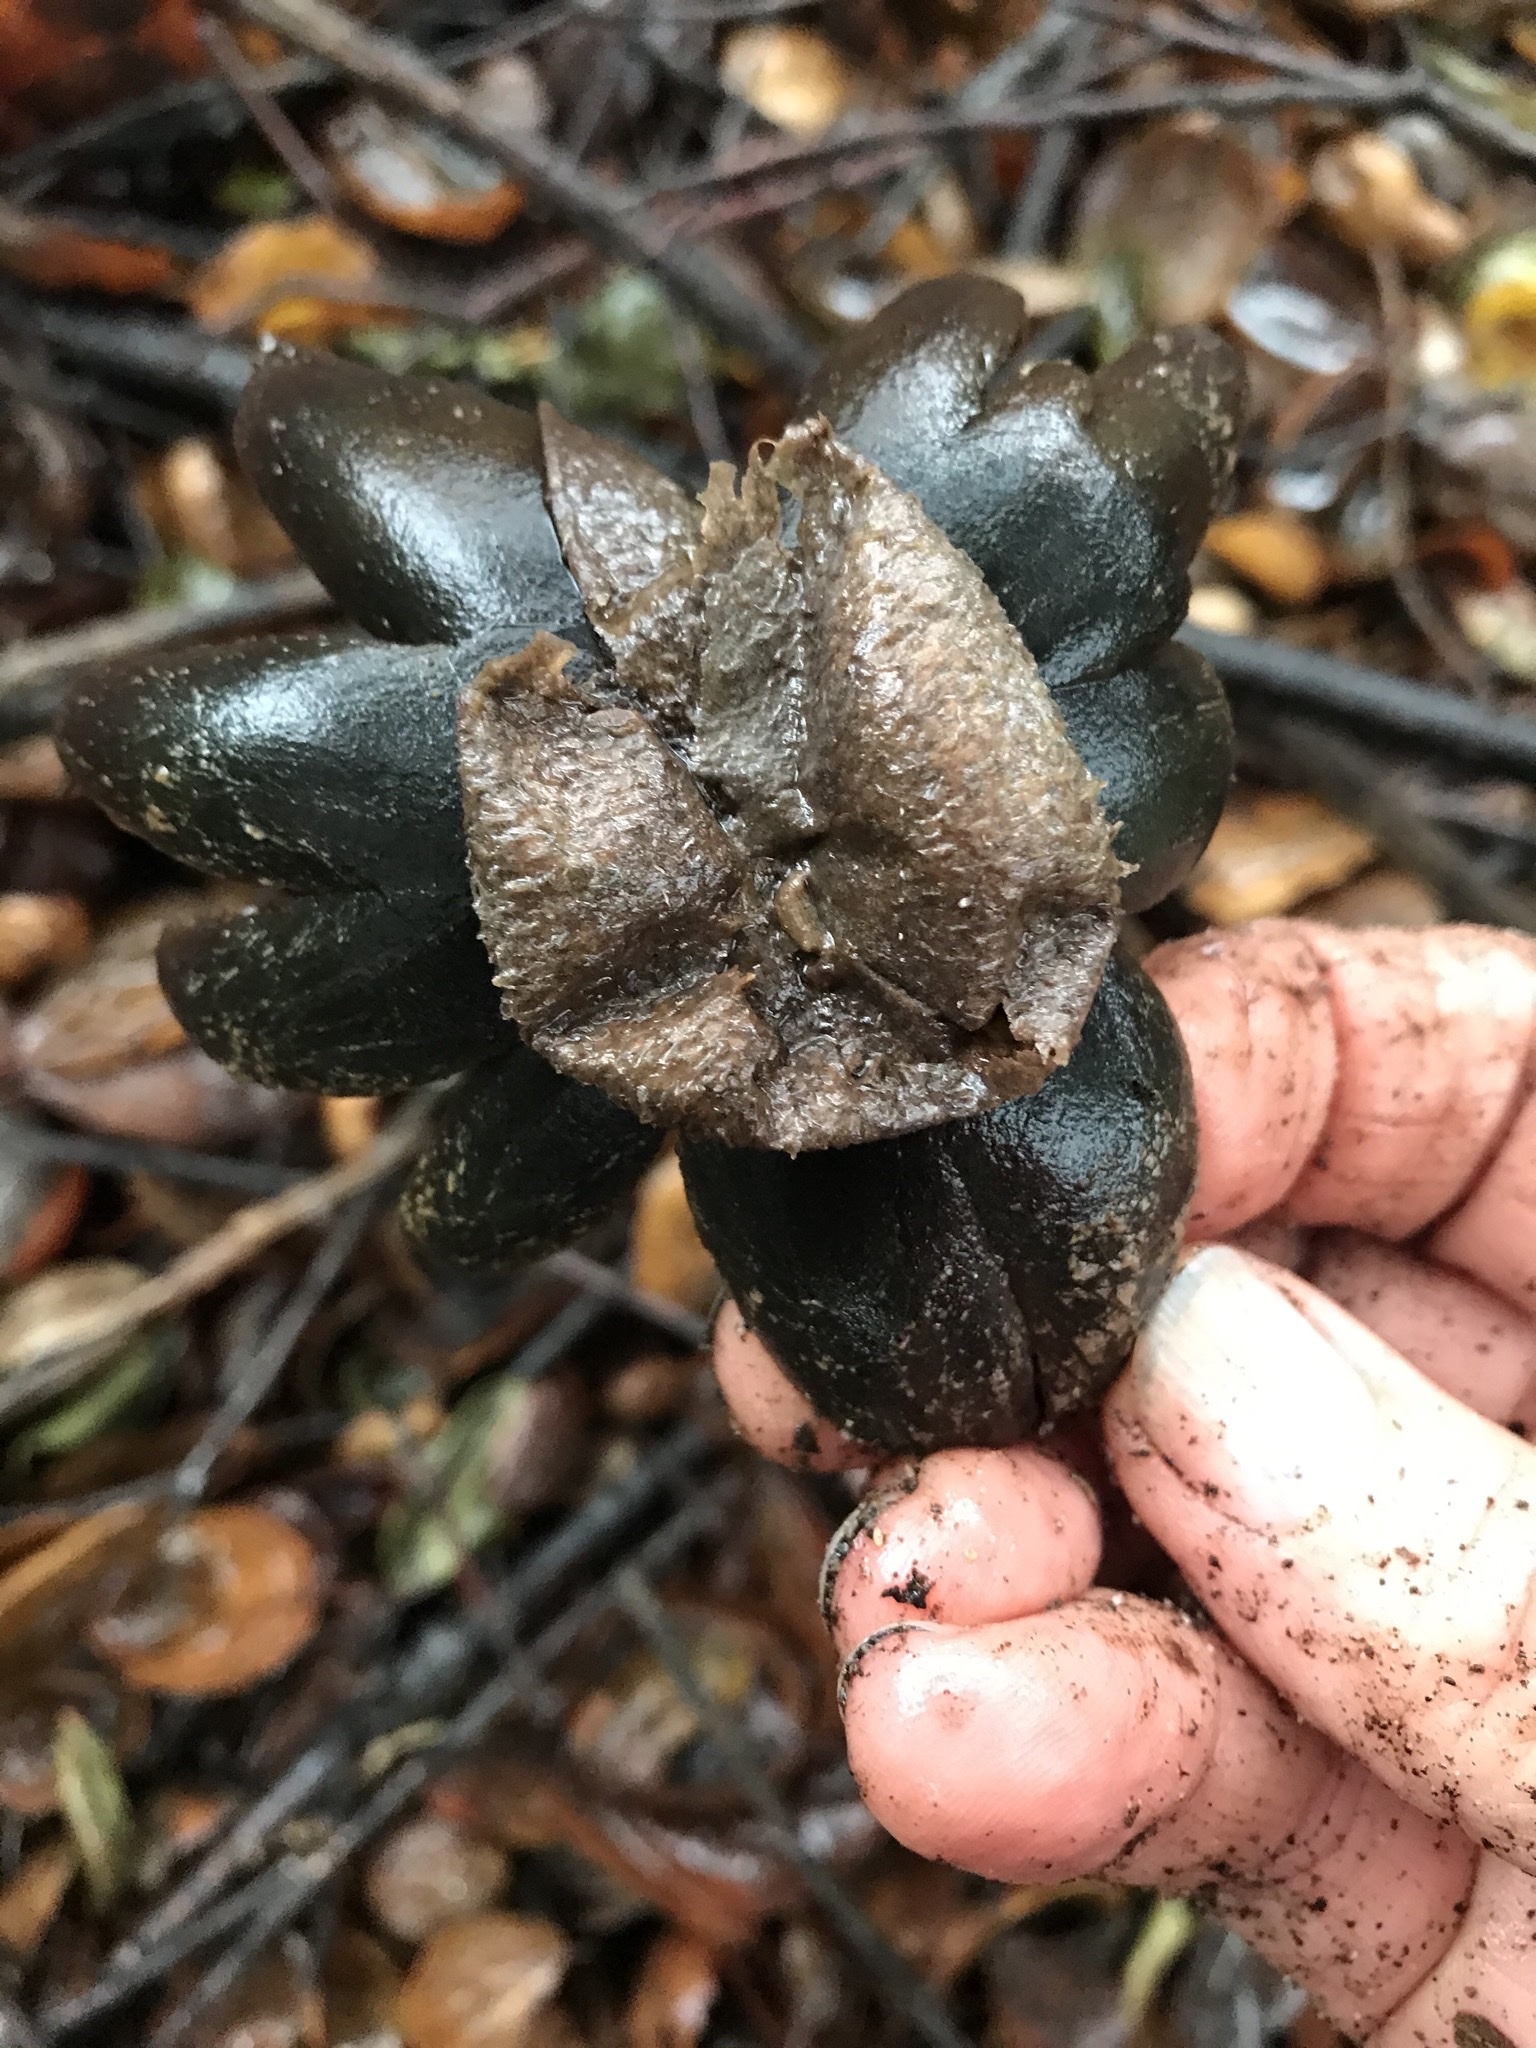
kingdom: Fungi
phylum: Basidiomycota
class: Agaricomycetes
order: Boletales
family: Diplocystidiaceae
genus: Astraeus
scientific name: Astraeus pteridis
